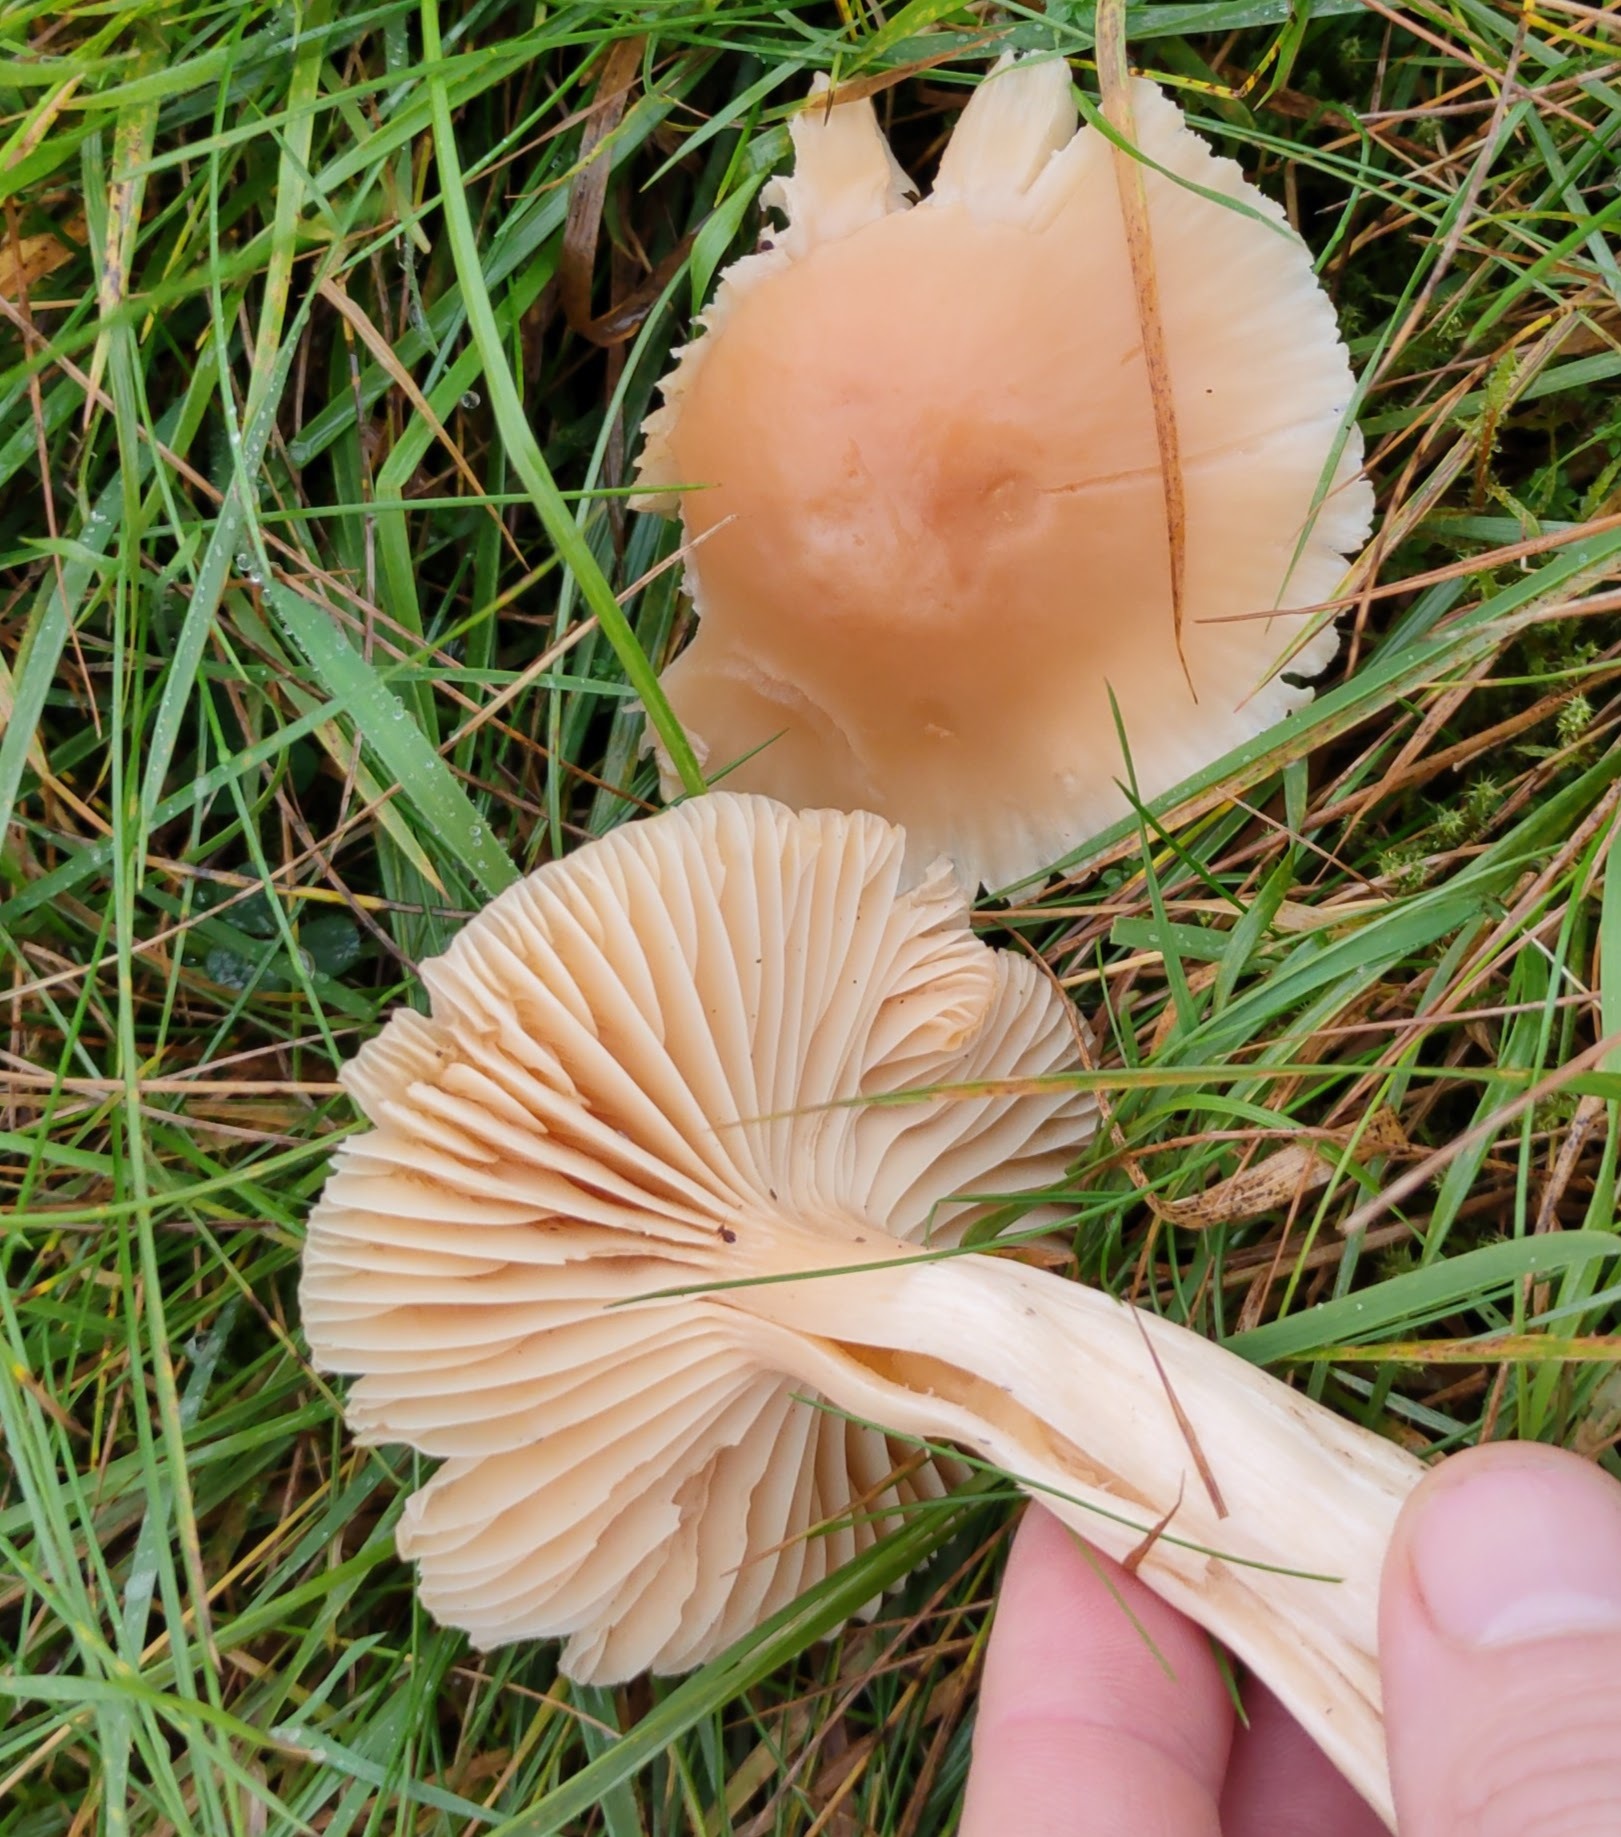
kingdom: Fungi
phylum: Basidiomycota
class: Agaricomycetes
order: Agaricales
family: Hygrophoraceae
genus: Cuphophyllus
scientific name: Cuphophyllus pratensis
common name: Meadow waxcap
